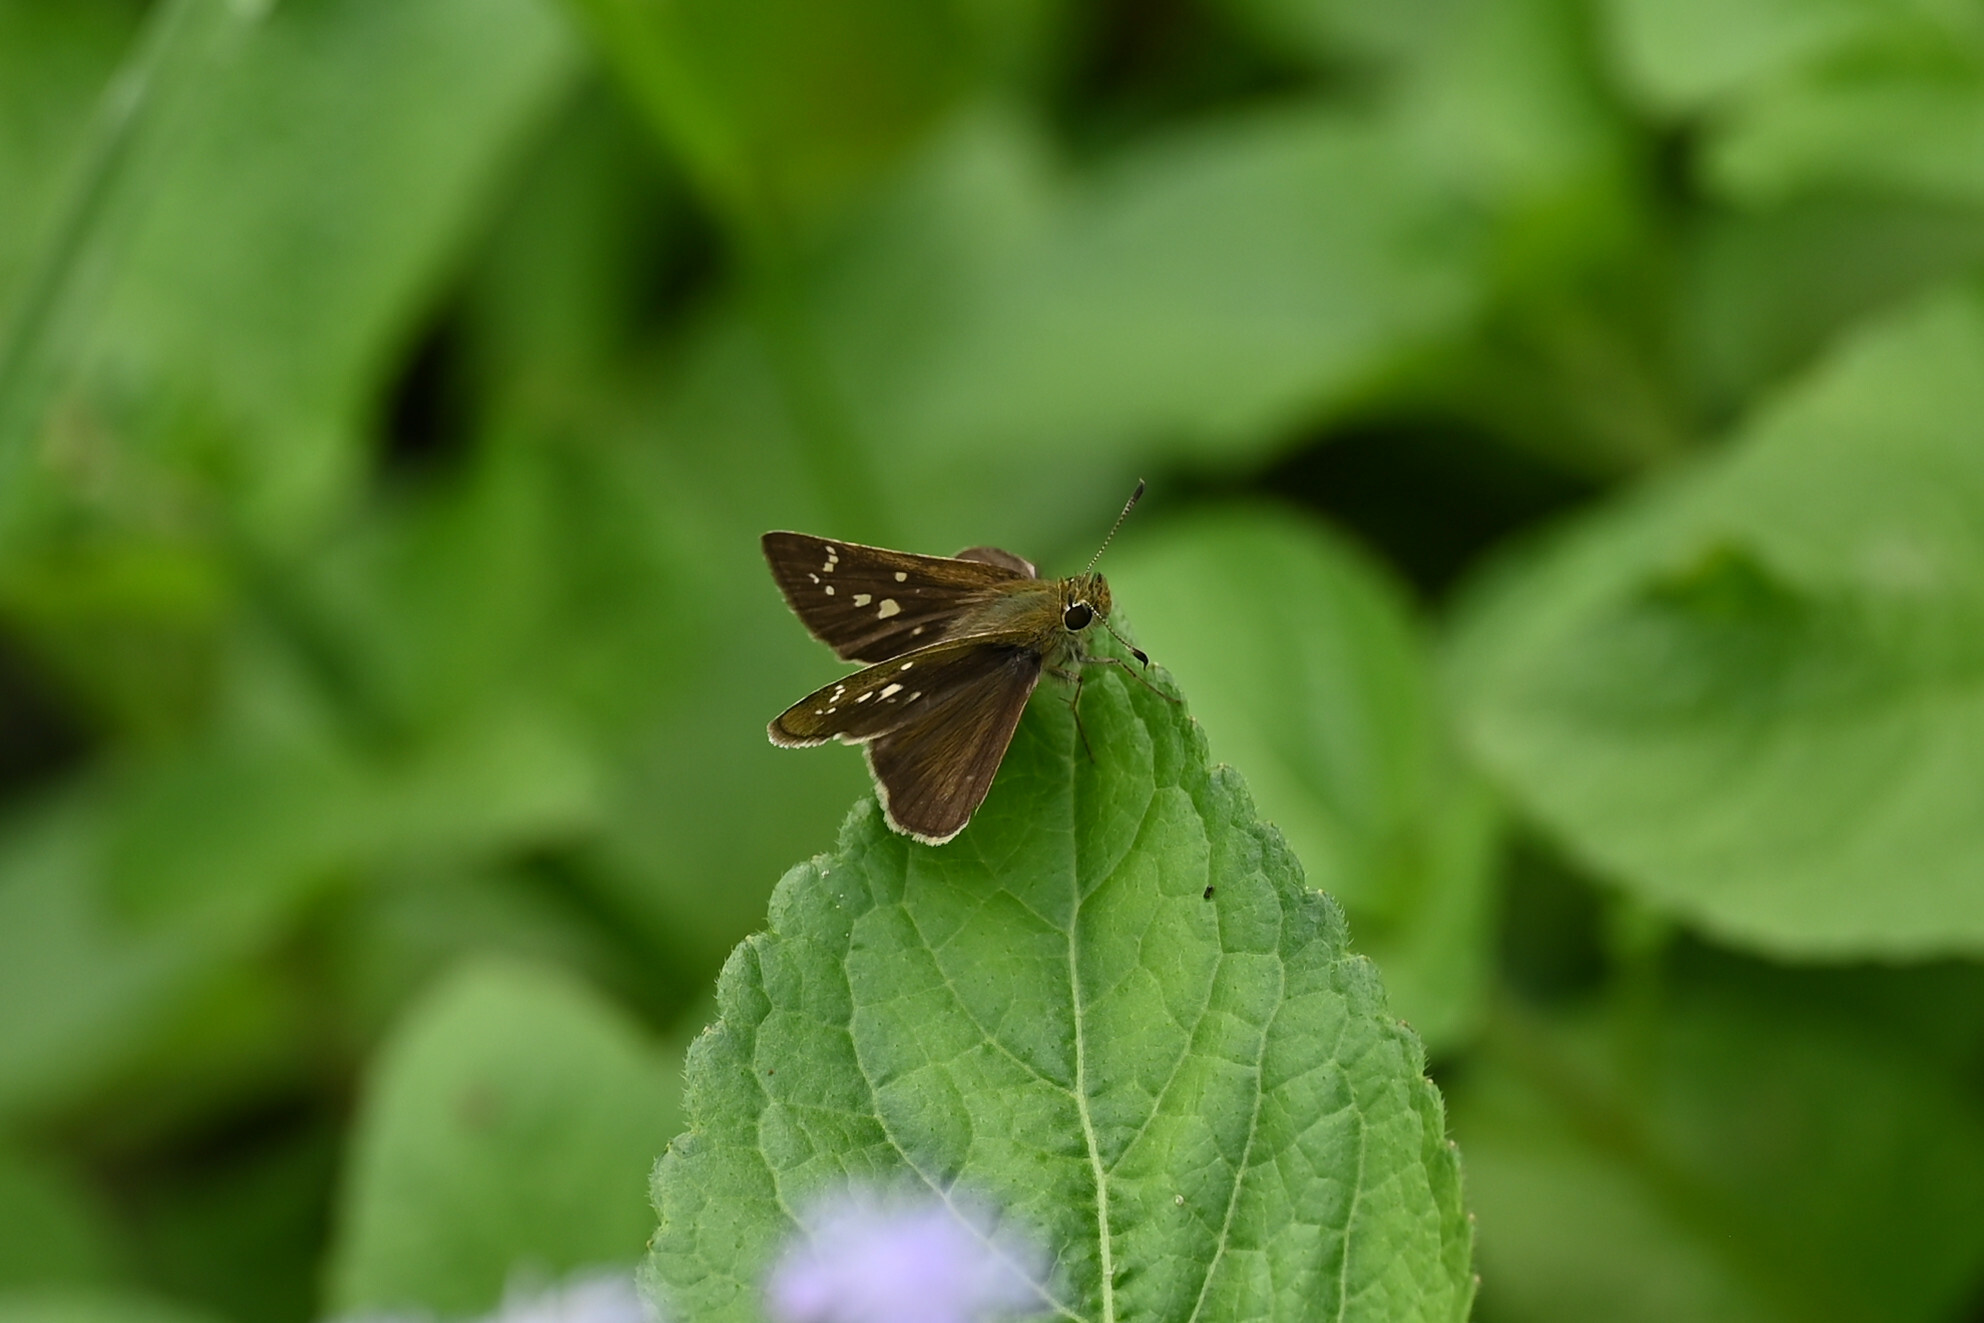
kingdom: Animalia
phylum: Arthropoda
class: Insecta
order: Lepidoptera
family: Hesperiidae
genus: Pseudoborbo
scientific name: Pseudoborbo bevani
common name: Bevan's swift
